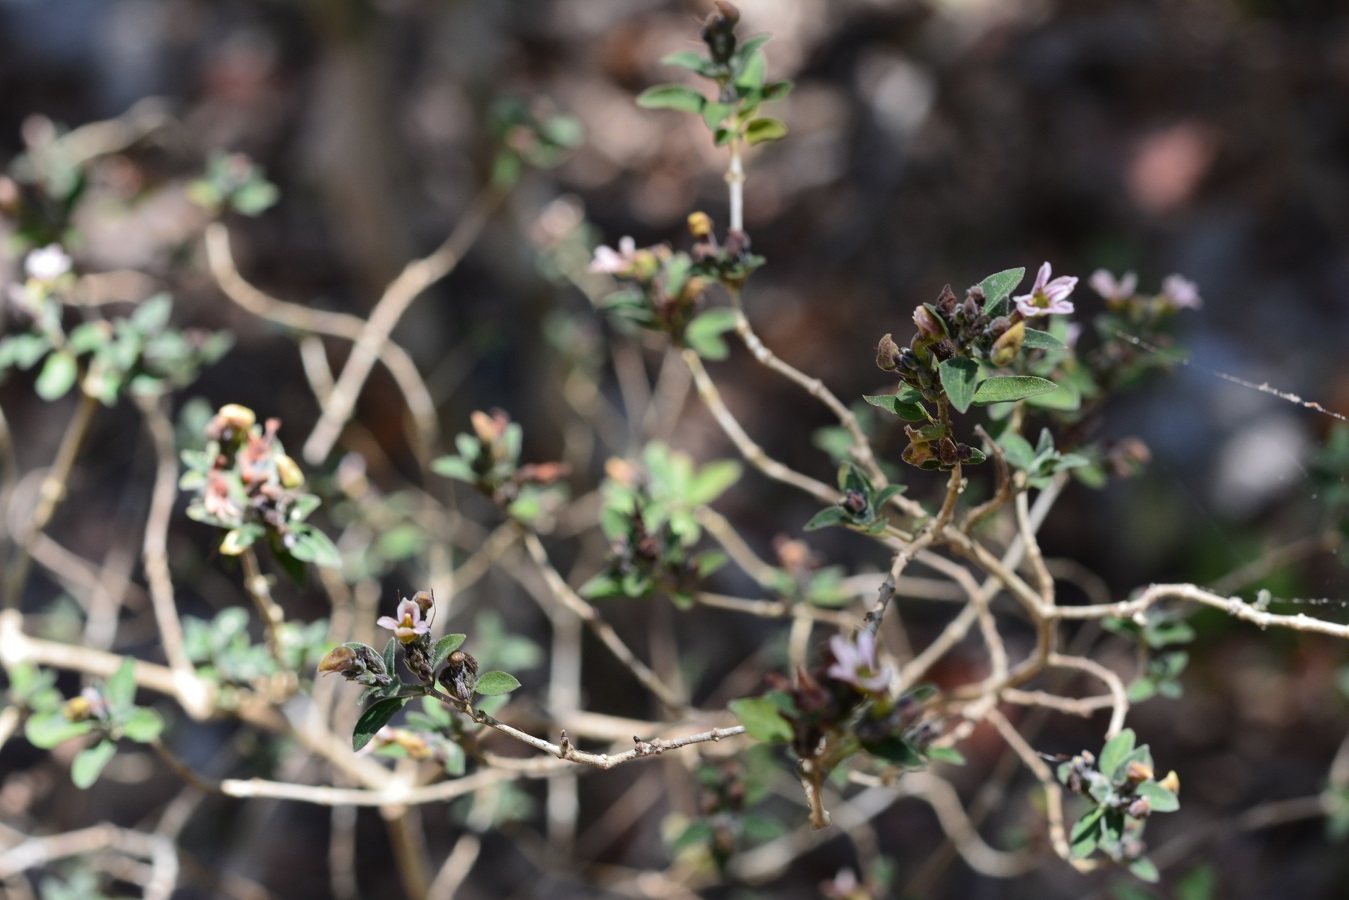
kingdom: Plantae
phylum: Tracheophyta
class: Magnoliopsida
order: Lamiales
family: Acanthaceae
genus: Holographis
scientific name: Holographis parayana
